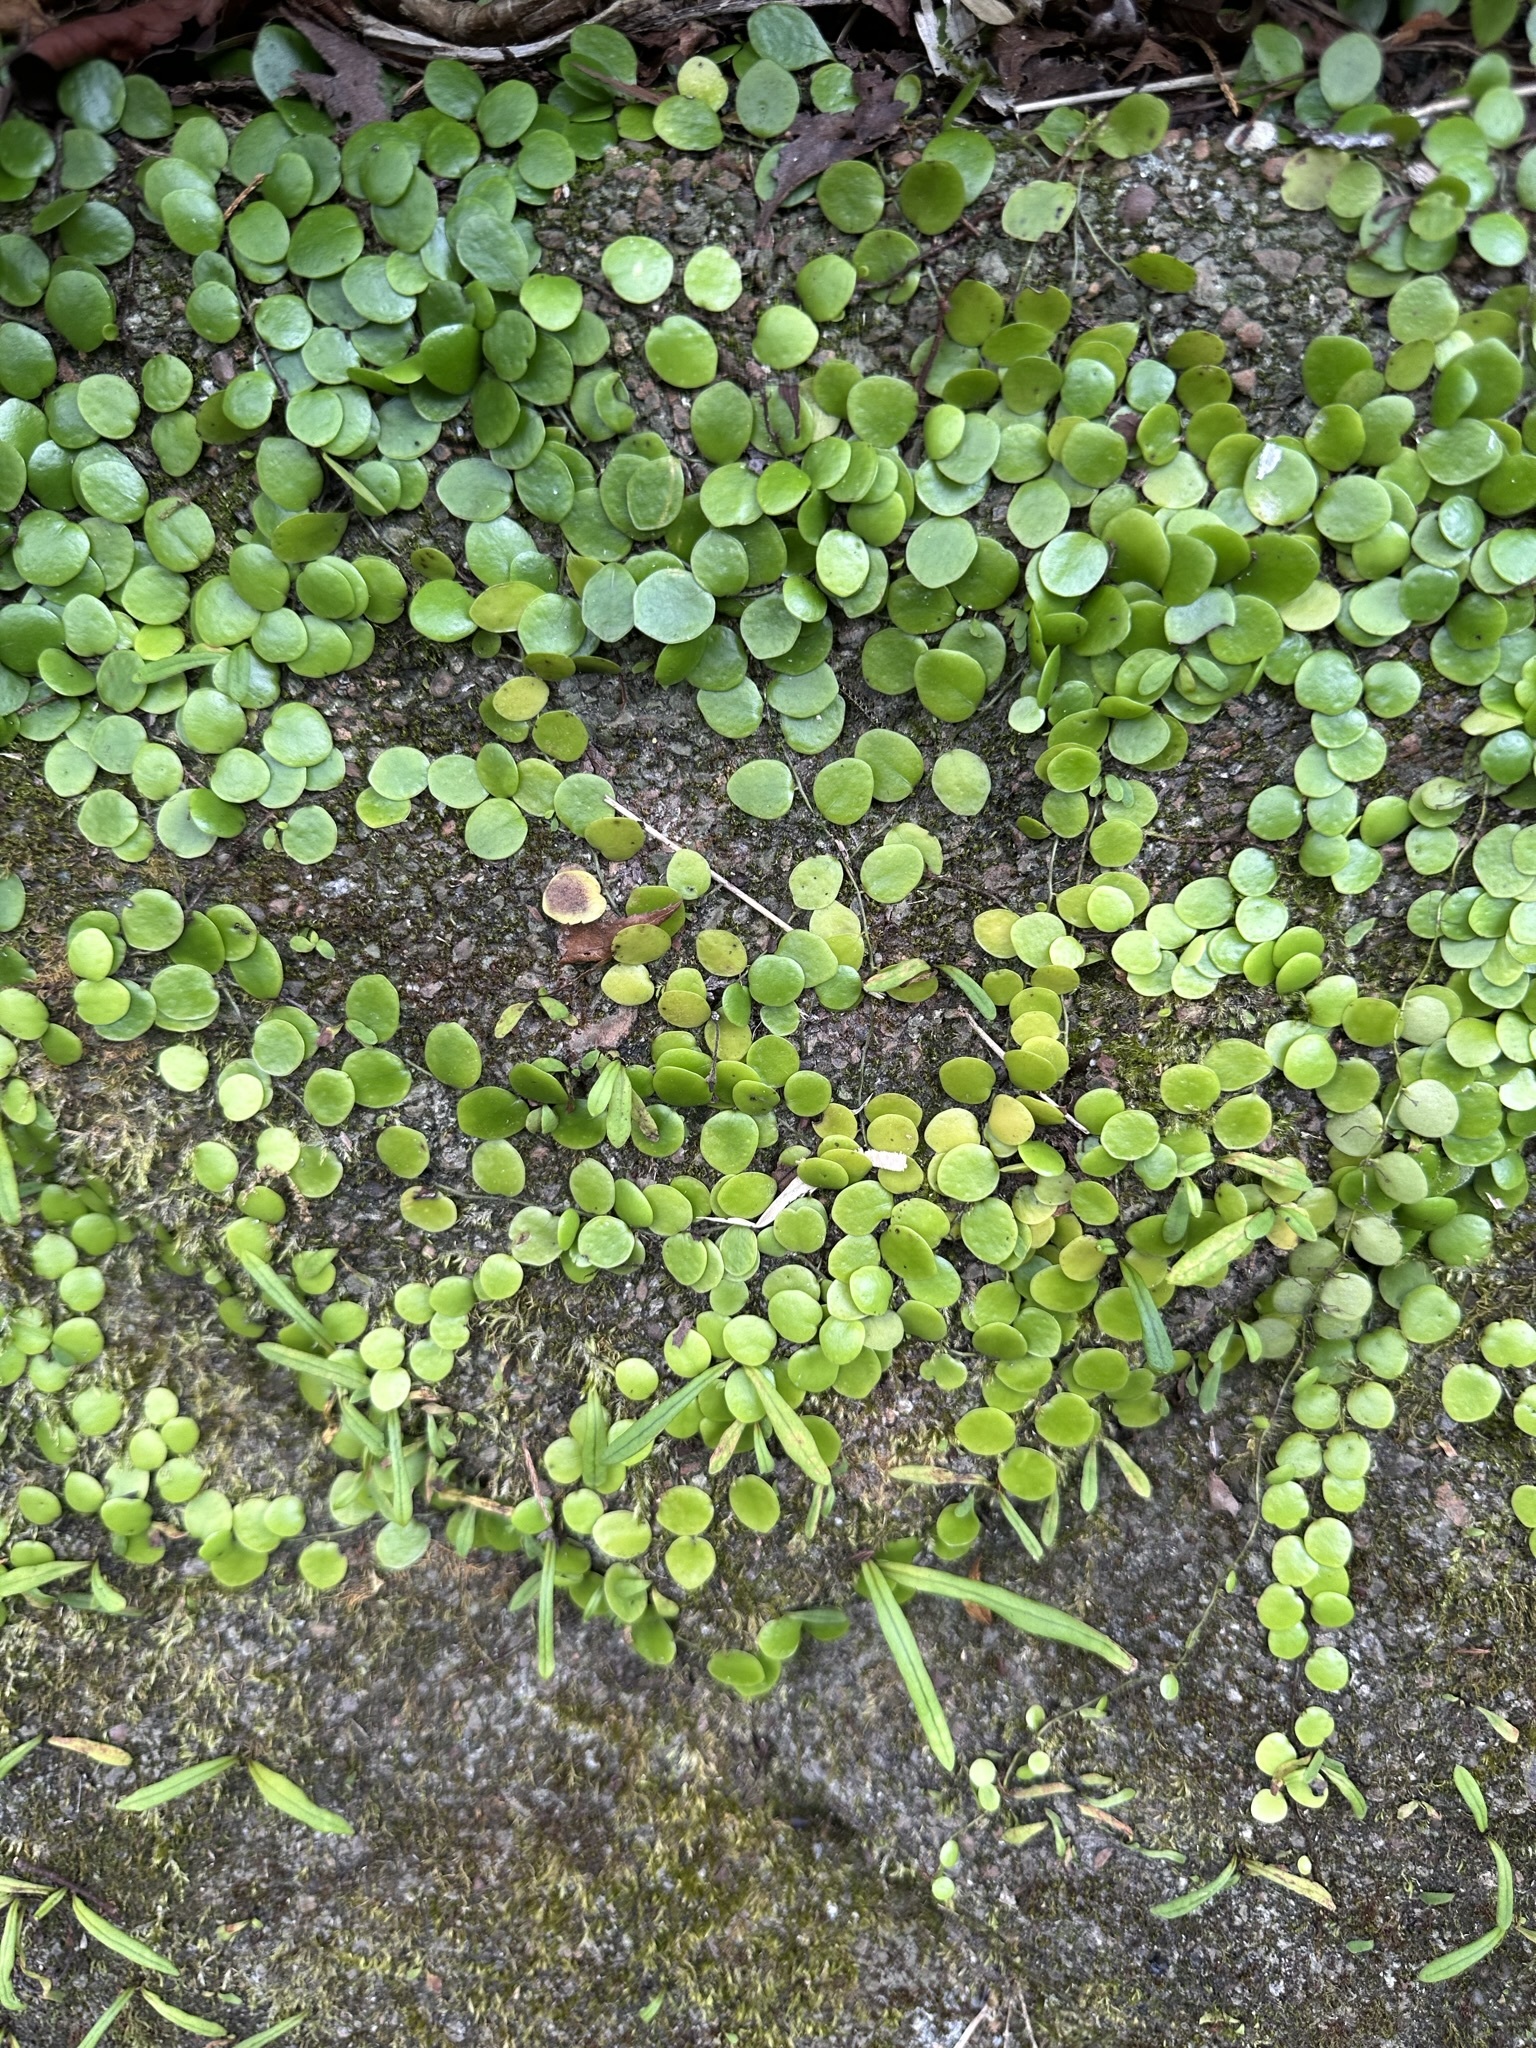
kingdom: Plantae
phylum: Tracheophyta
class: Polypodiopsida
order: Polypodiales
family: Polypodiaceae
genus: Lepisorus
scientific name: Lepisorus microphyllus
